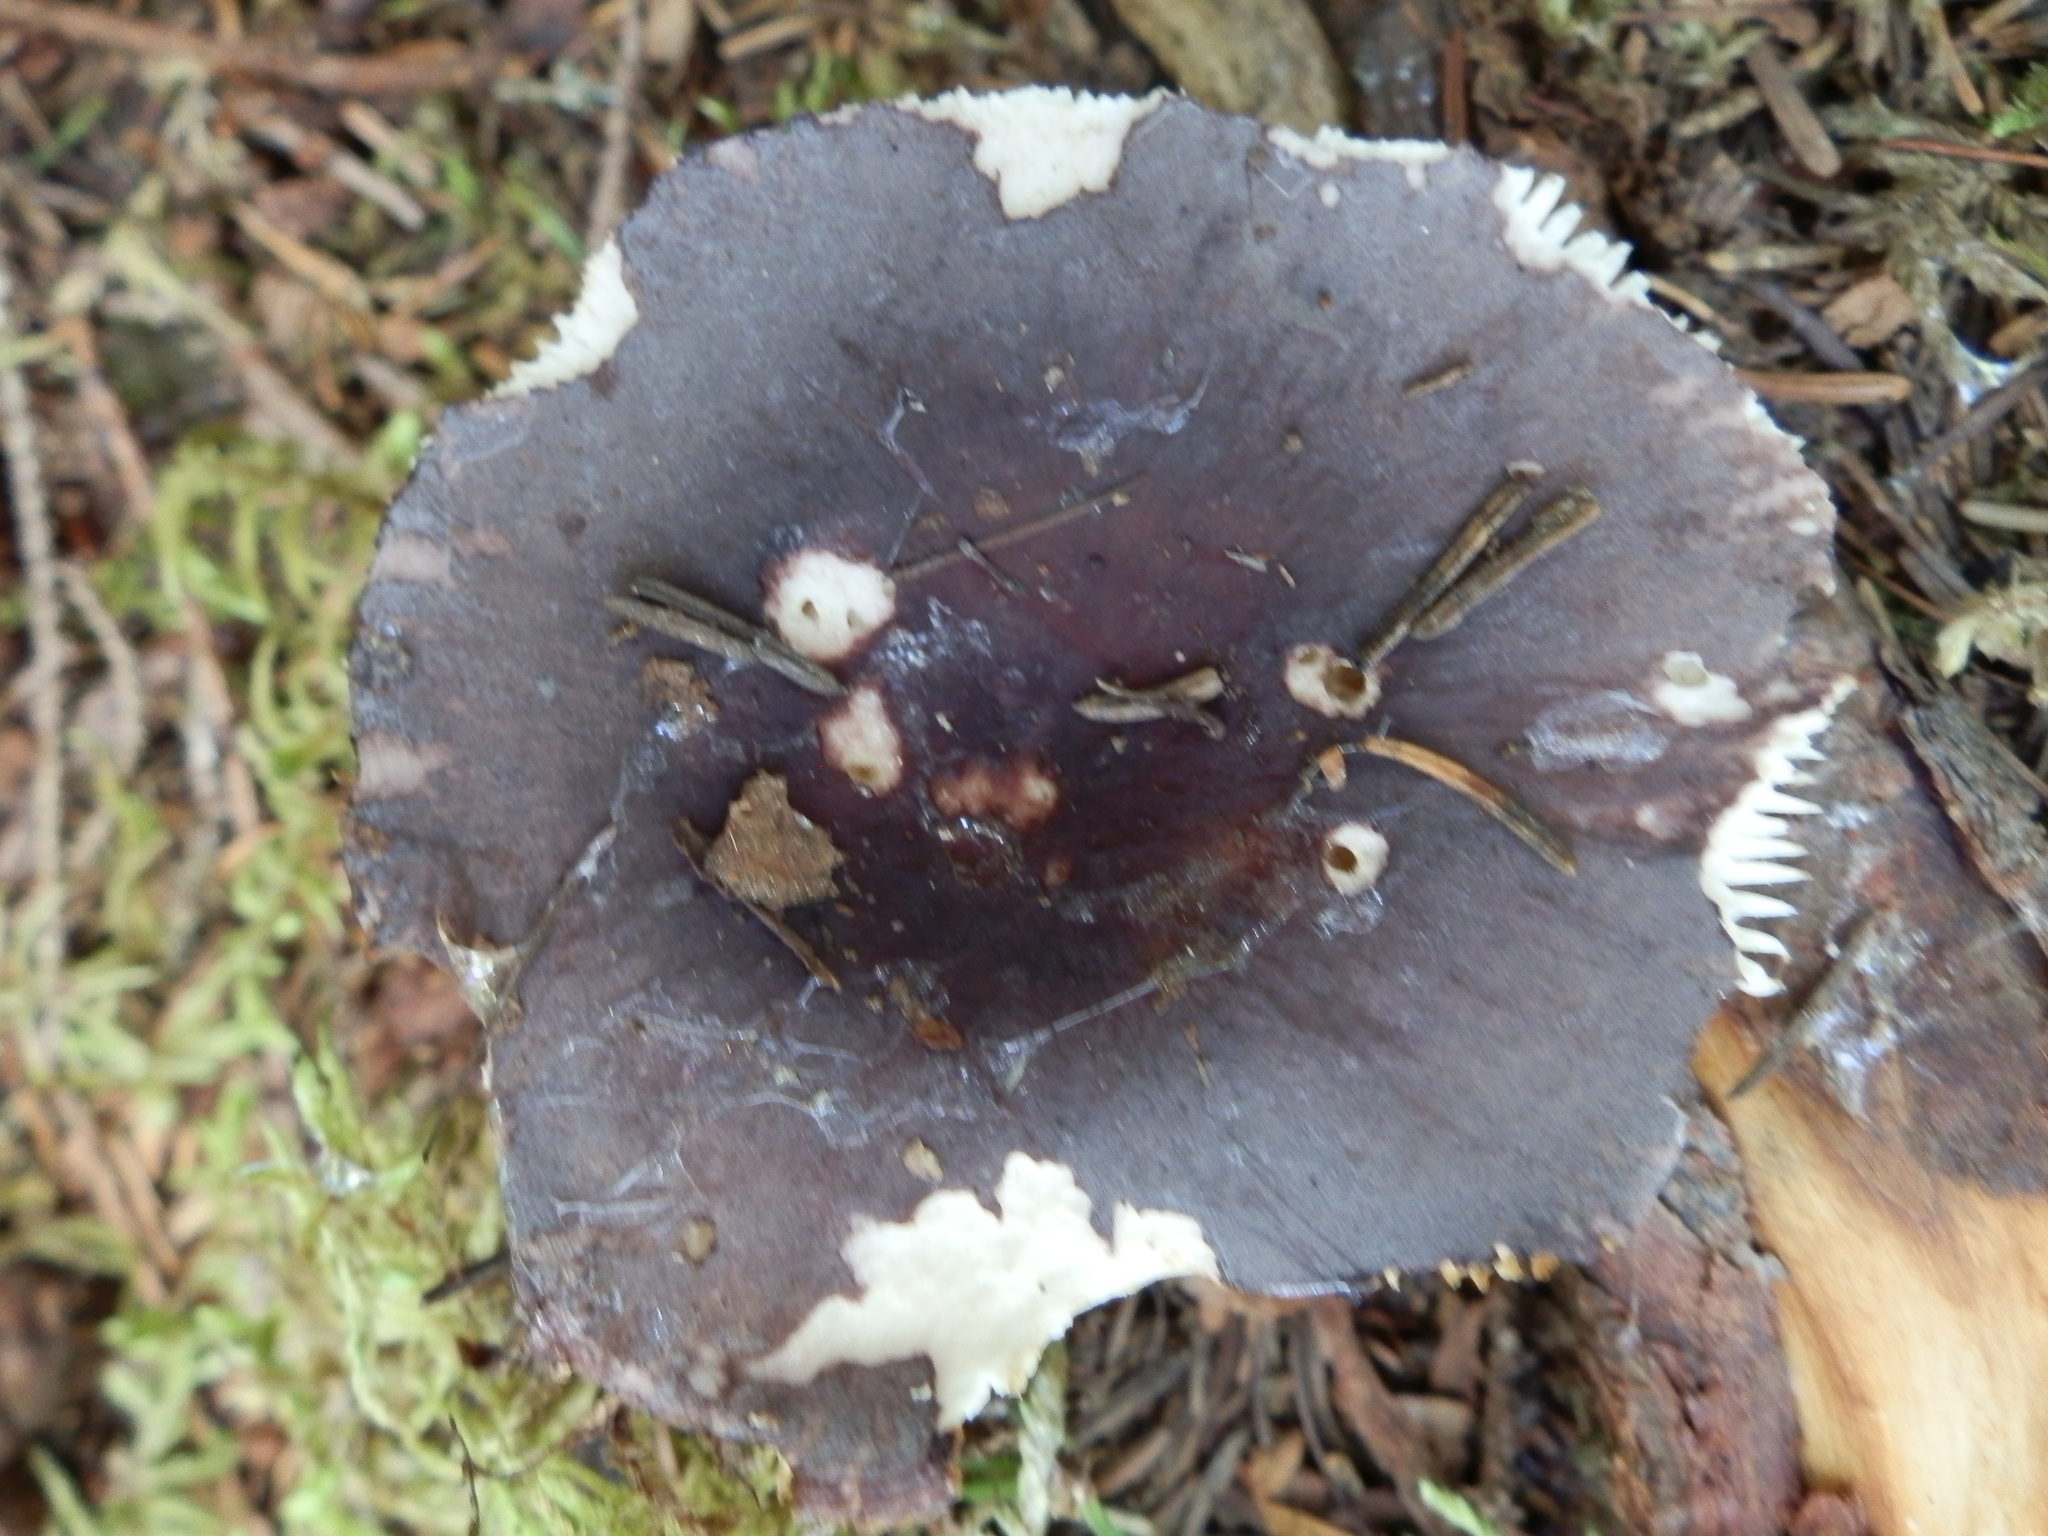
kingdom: Fungi
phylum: Basidiomycota
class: Agaricomycetes
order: Russulales
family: Russulaceae
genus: Russula
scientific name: Russula mariae
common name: Purple-bloom russula
